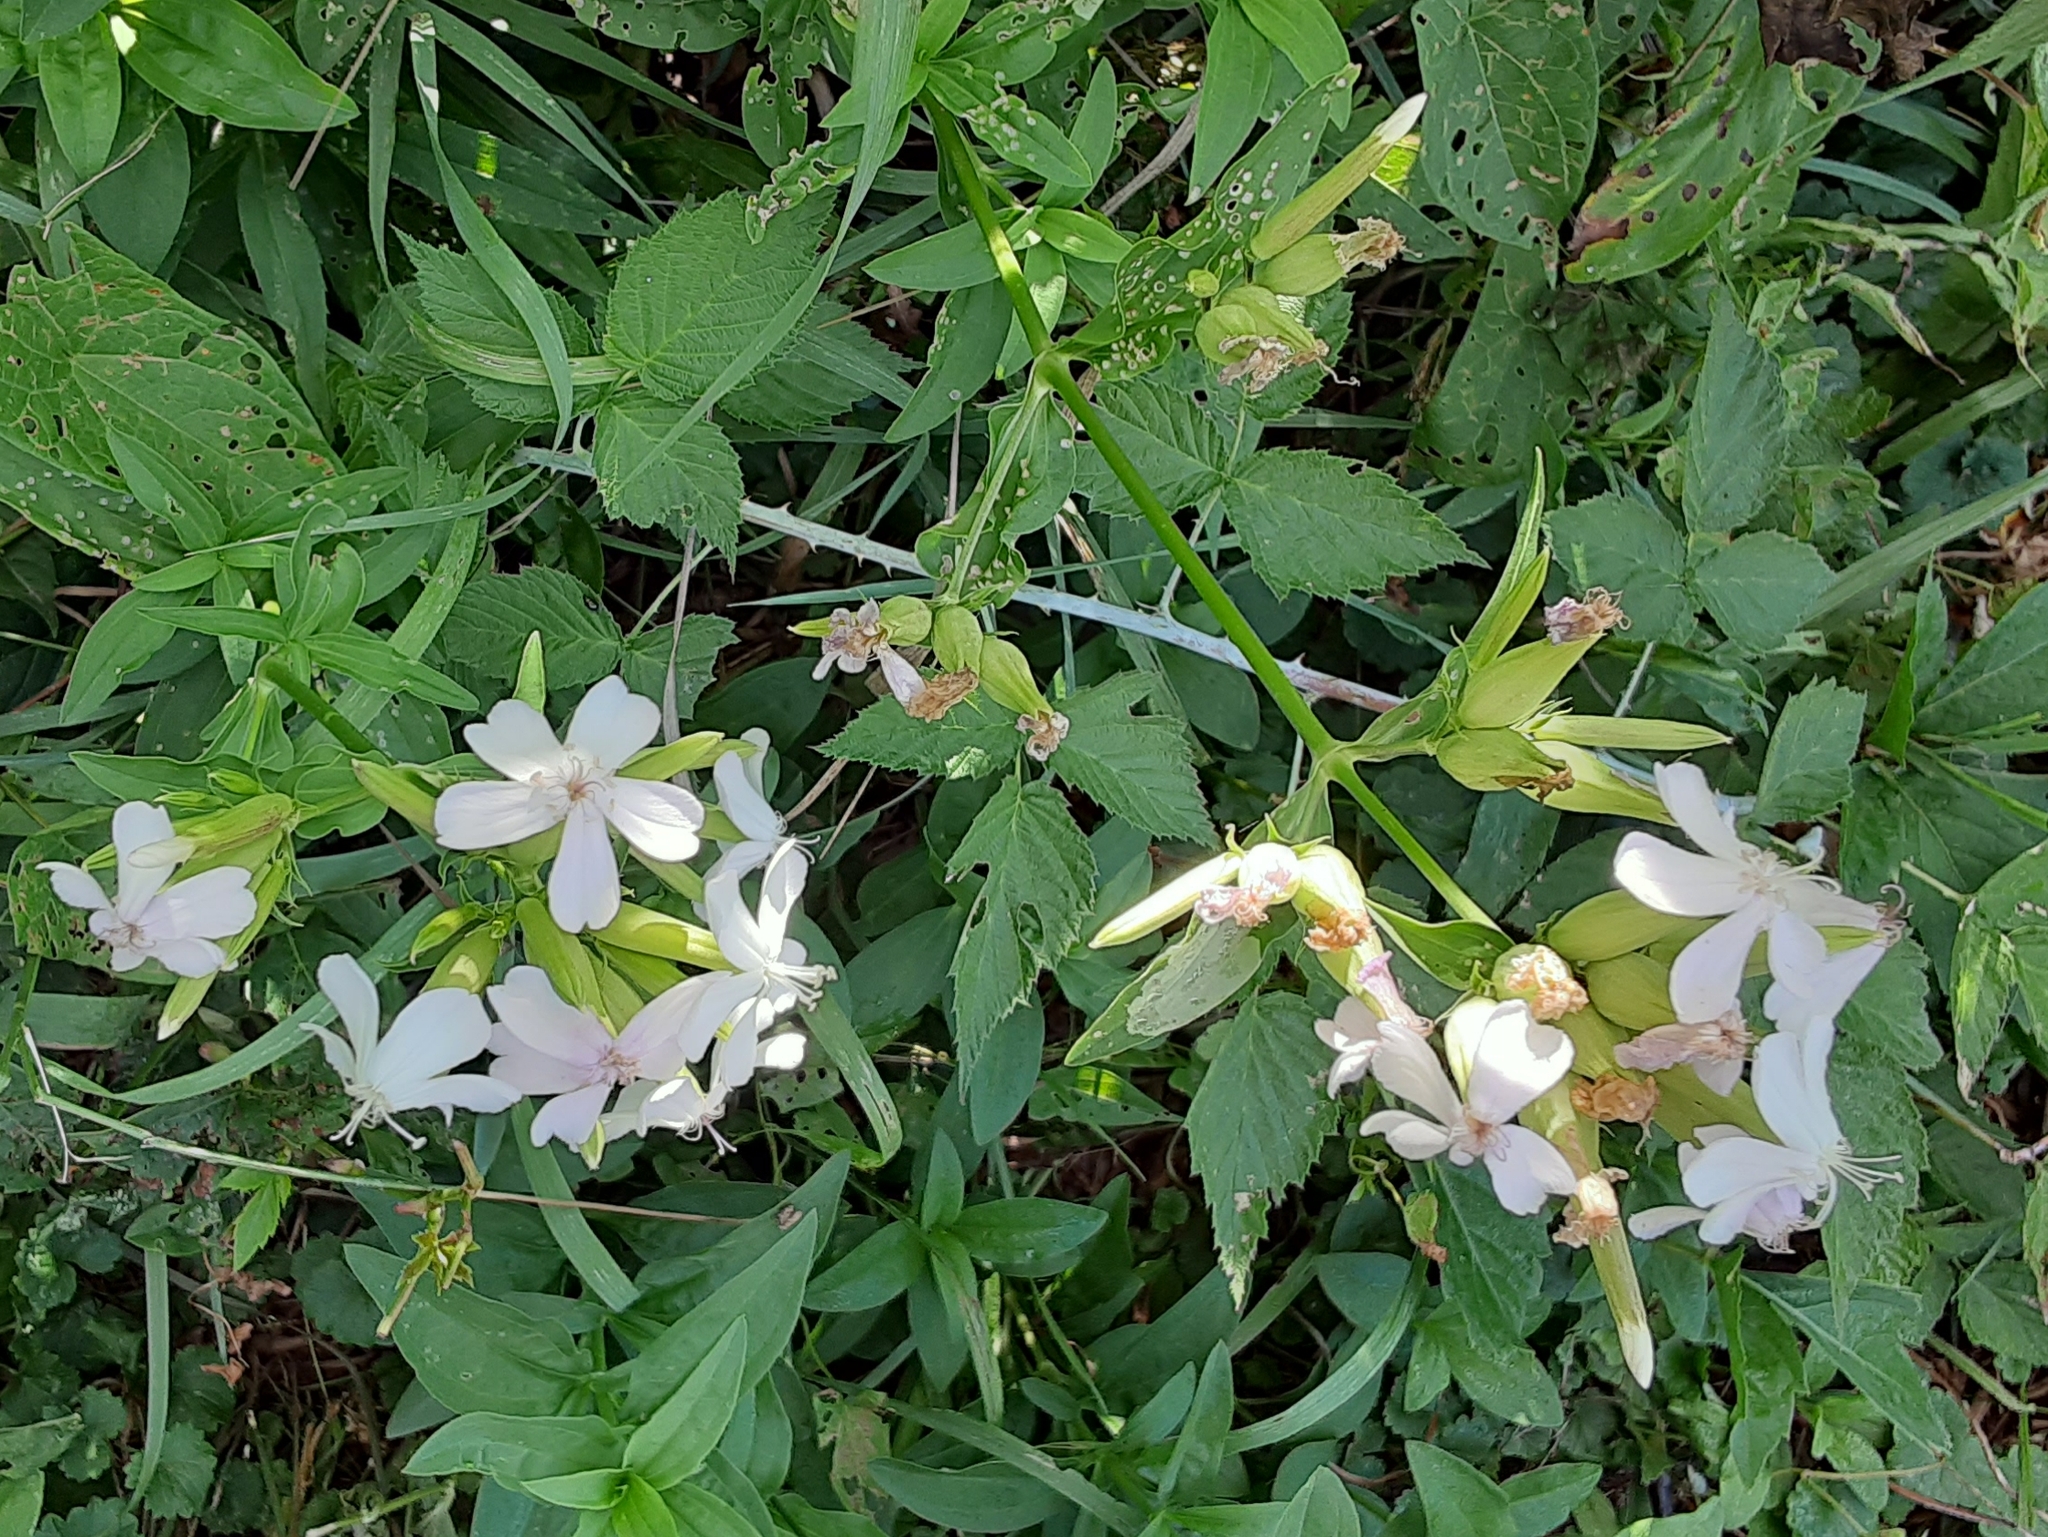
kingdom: Plantae
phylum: Tracheophyta
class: Magnoliopsida
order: Caryophyllales
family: Caryophyllaceae
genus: Saponaria
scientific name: Saponaria officinalis
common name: Soapwort
